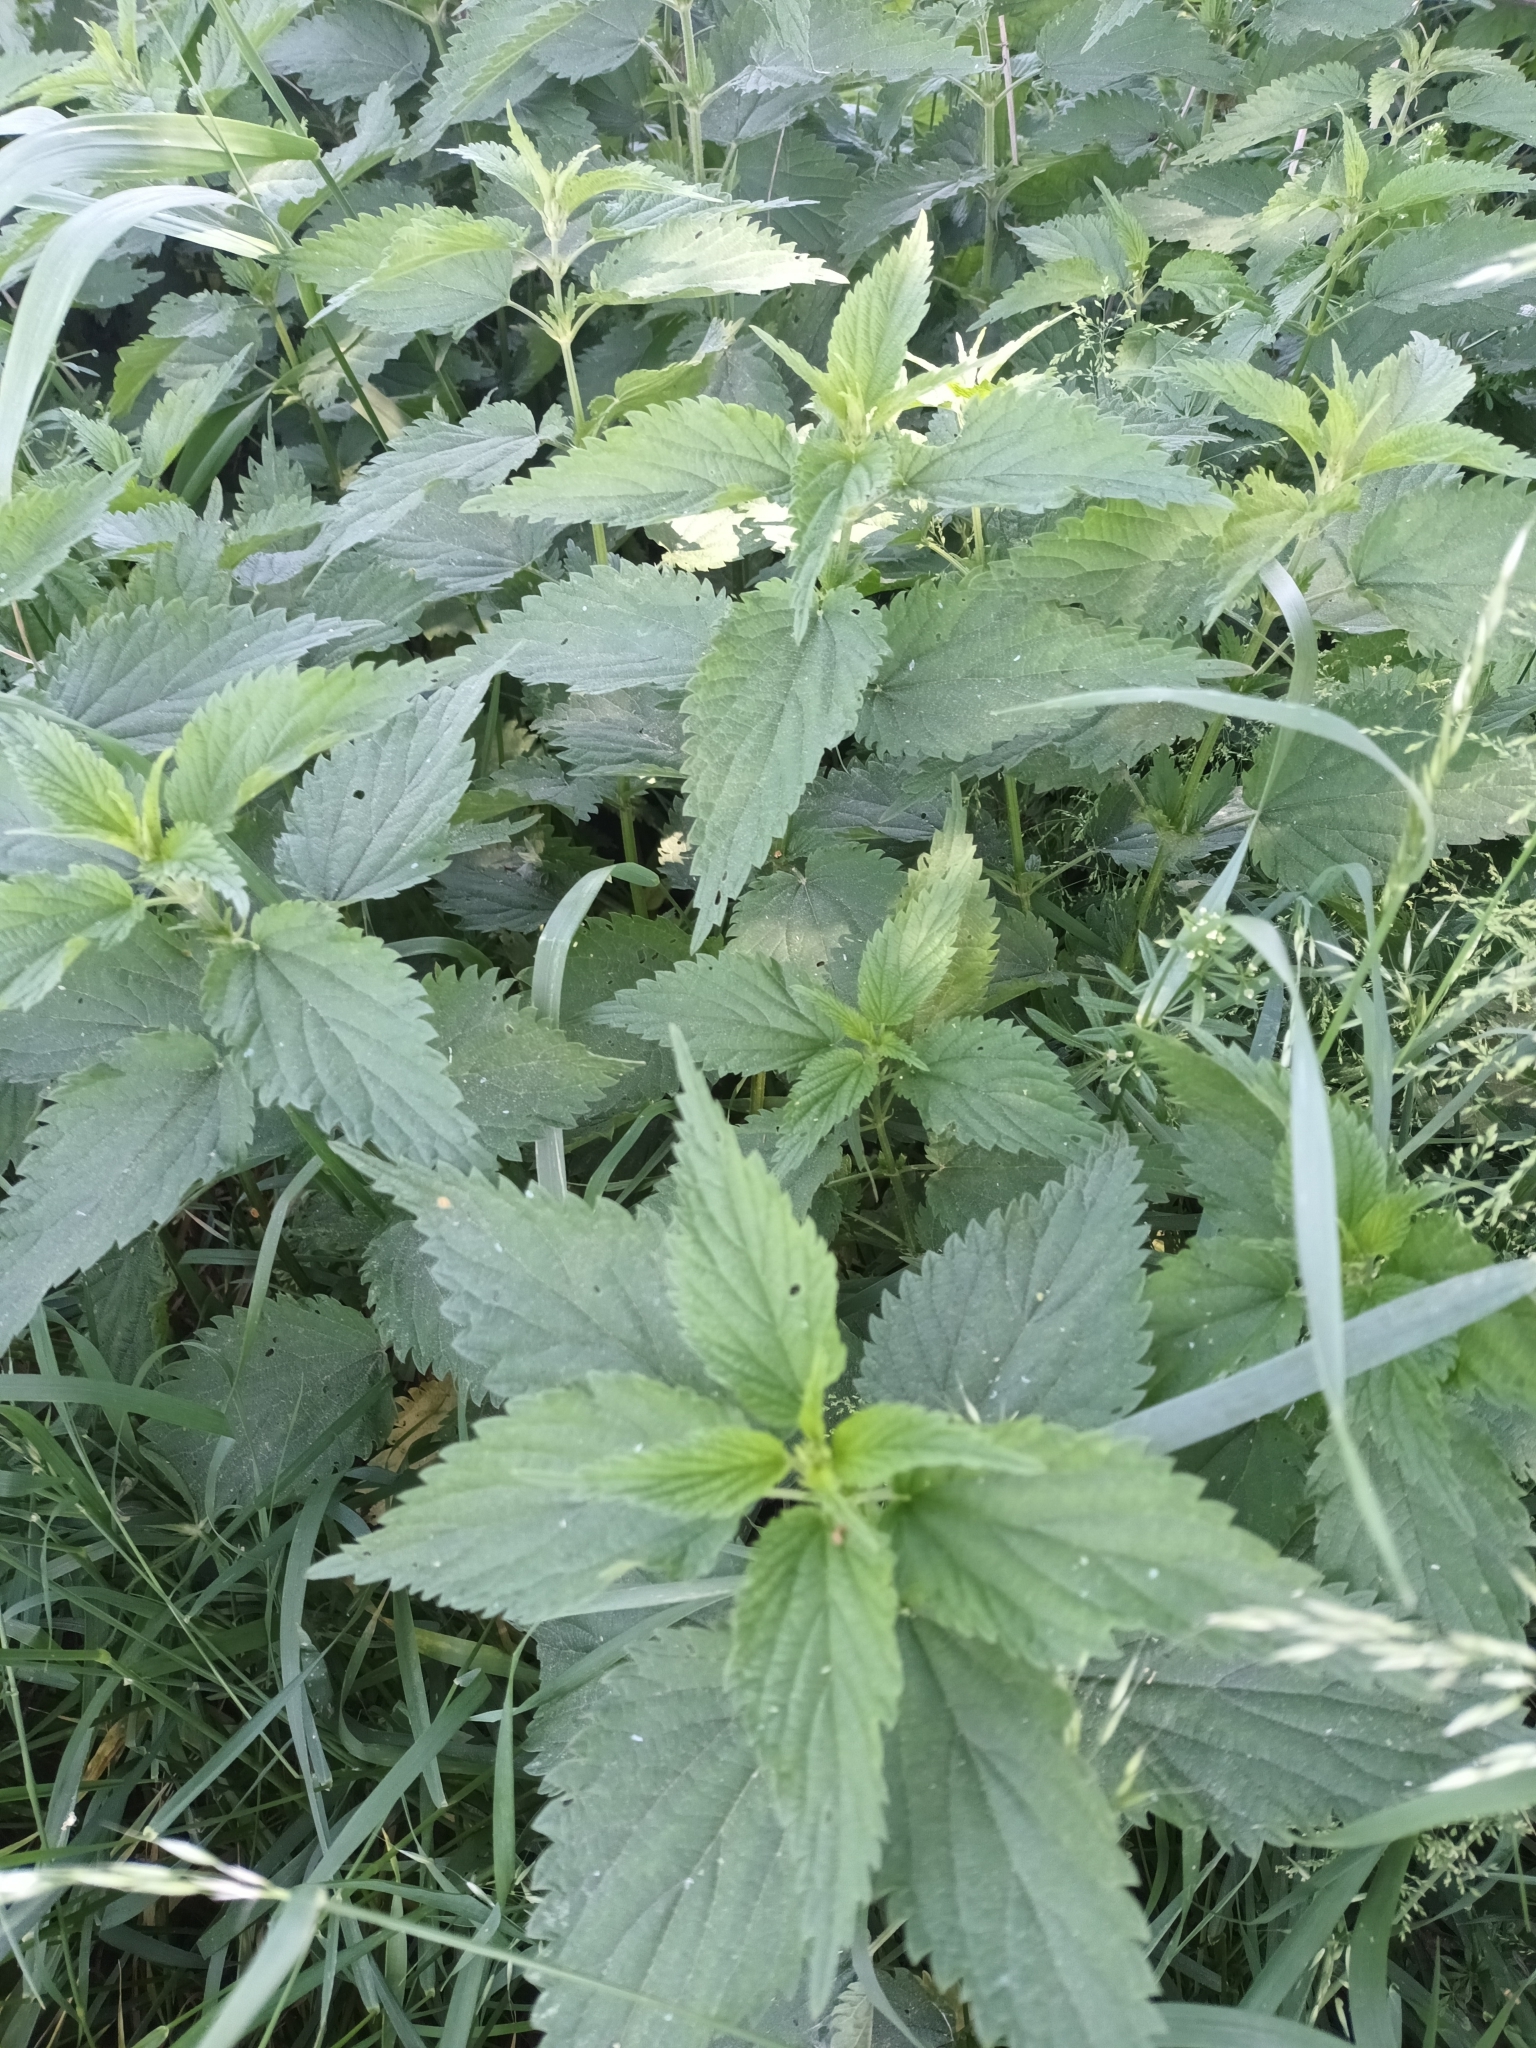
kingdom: Plantae
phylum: Tracheophyta
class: Magnoliopsida
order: Rosales
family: Urticaceae
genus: Urtica
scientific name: Urtica dioica
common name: Common nettle
